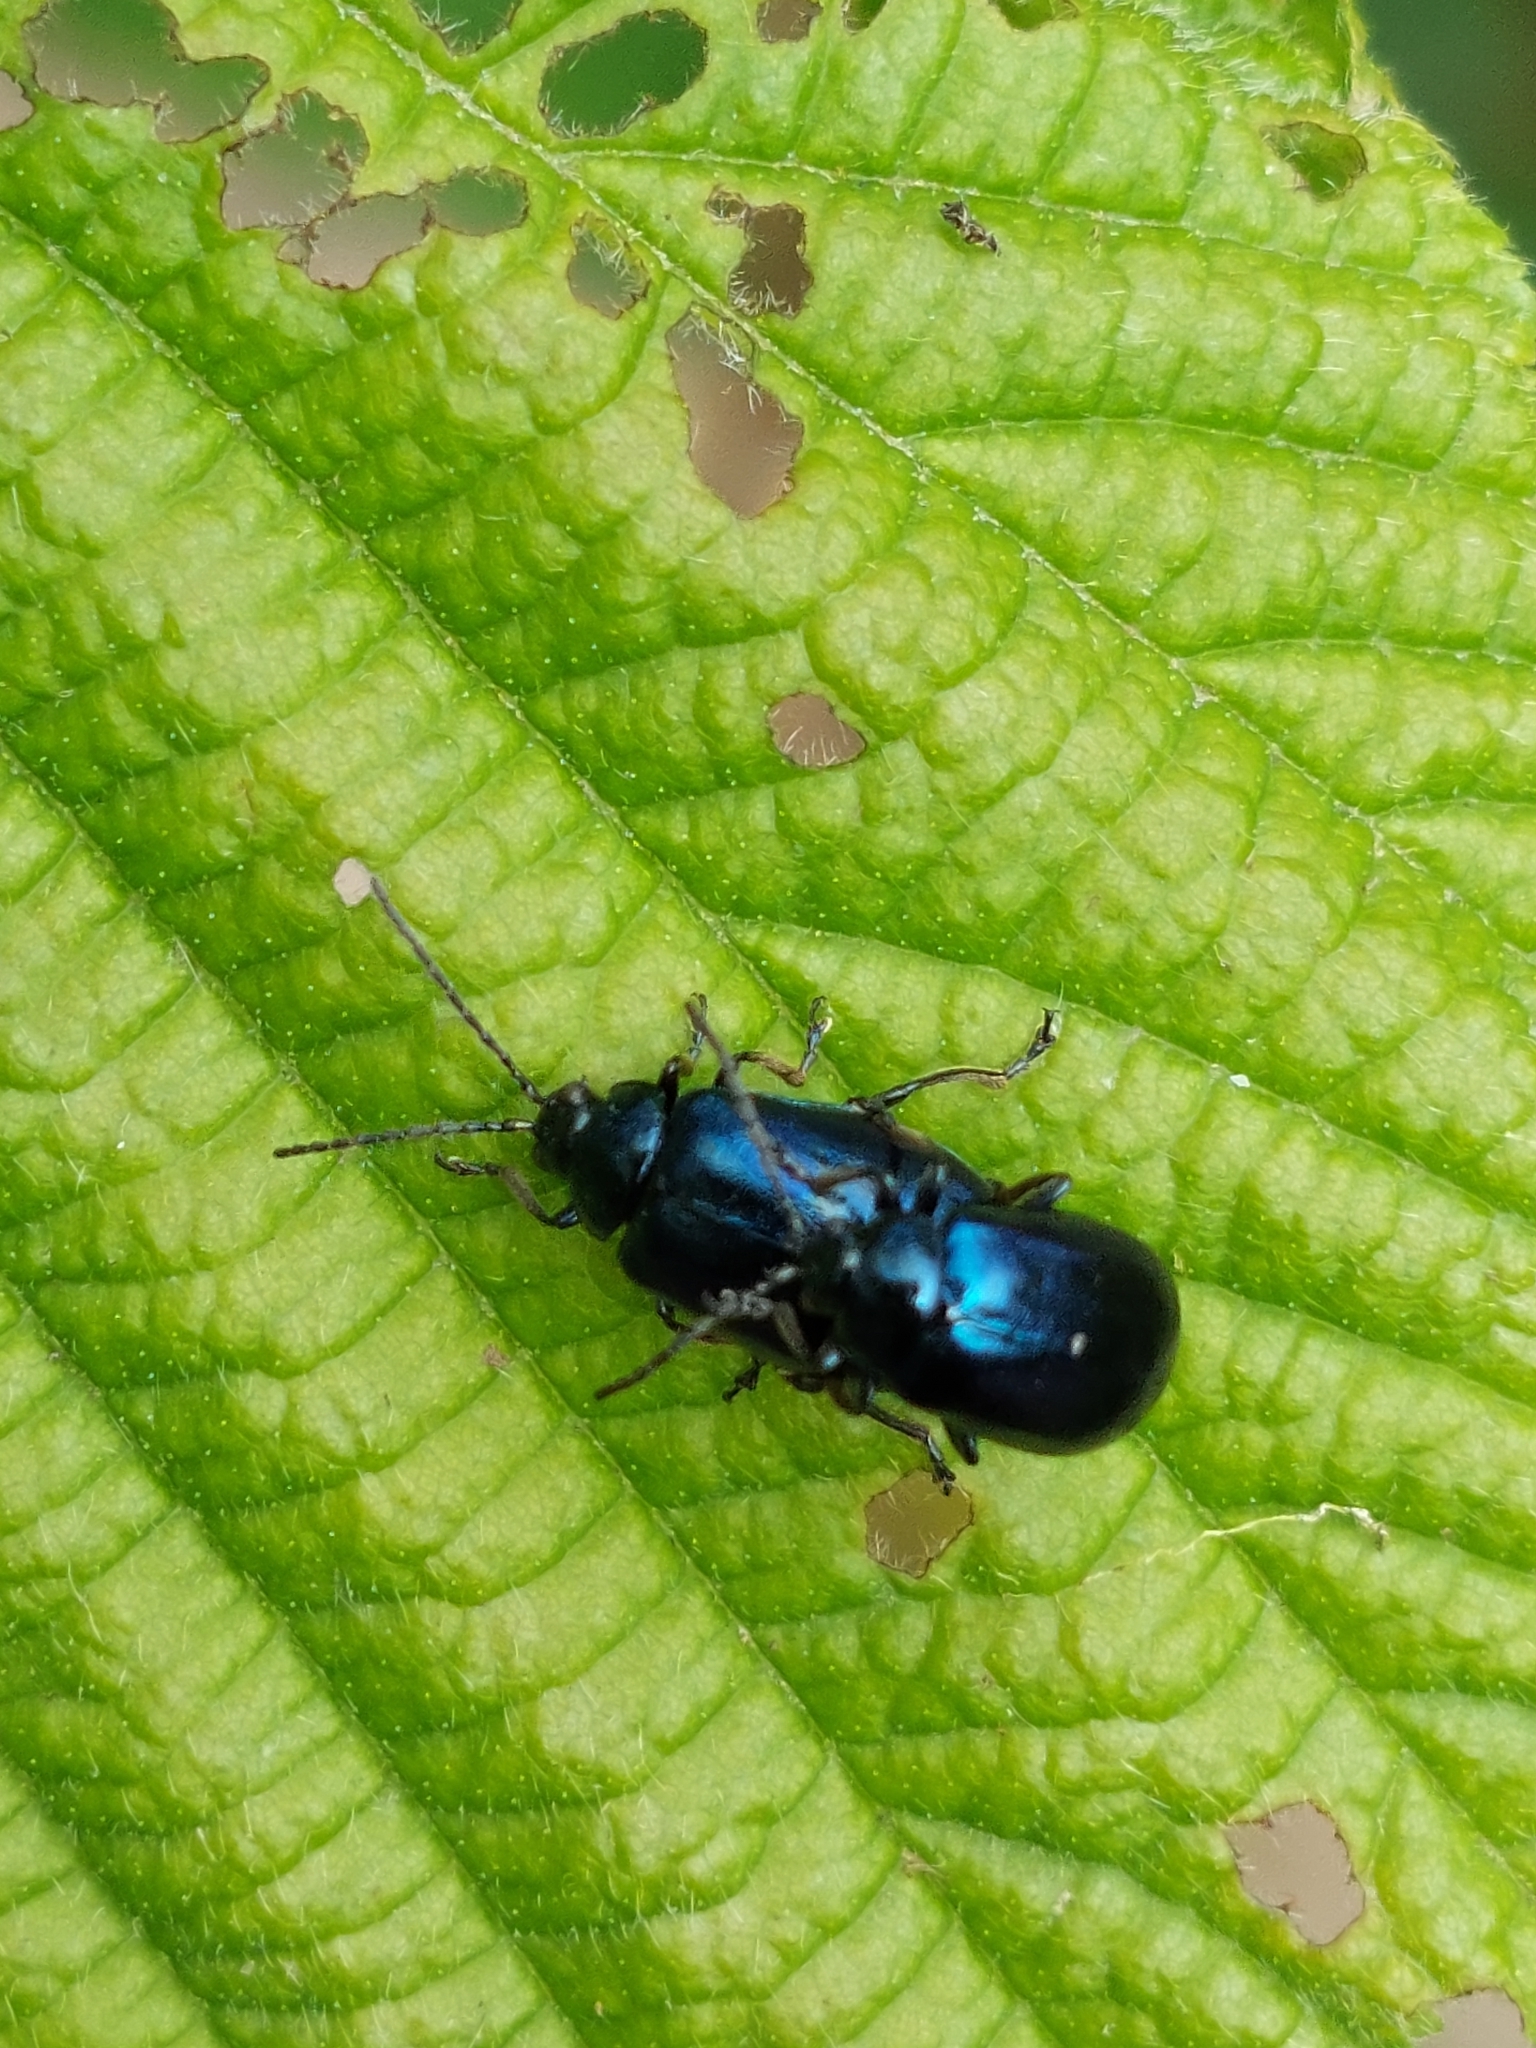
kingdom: Animalia
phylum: Arthropoda
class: Insecta
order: Coleoptera
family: Chrysomelidae
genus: Agelastica
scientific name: Agelastica alni
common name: Alder leaf beetle
